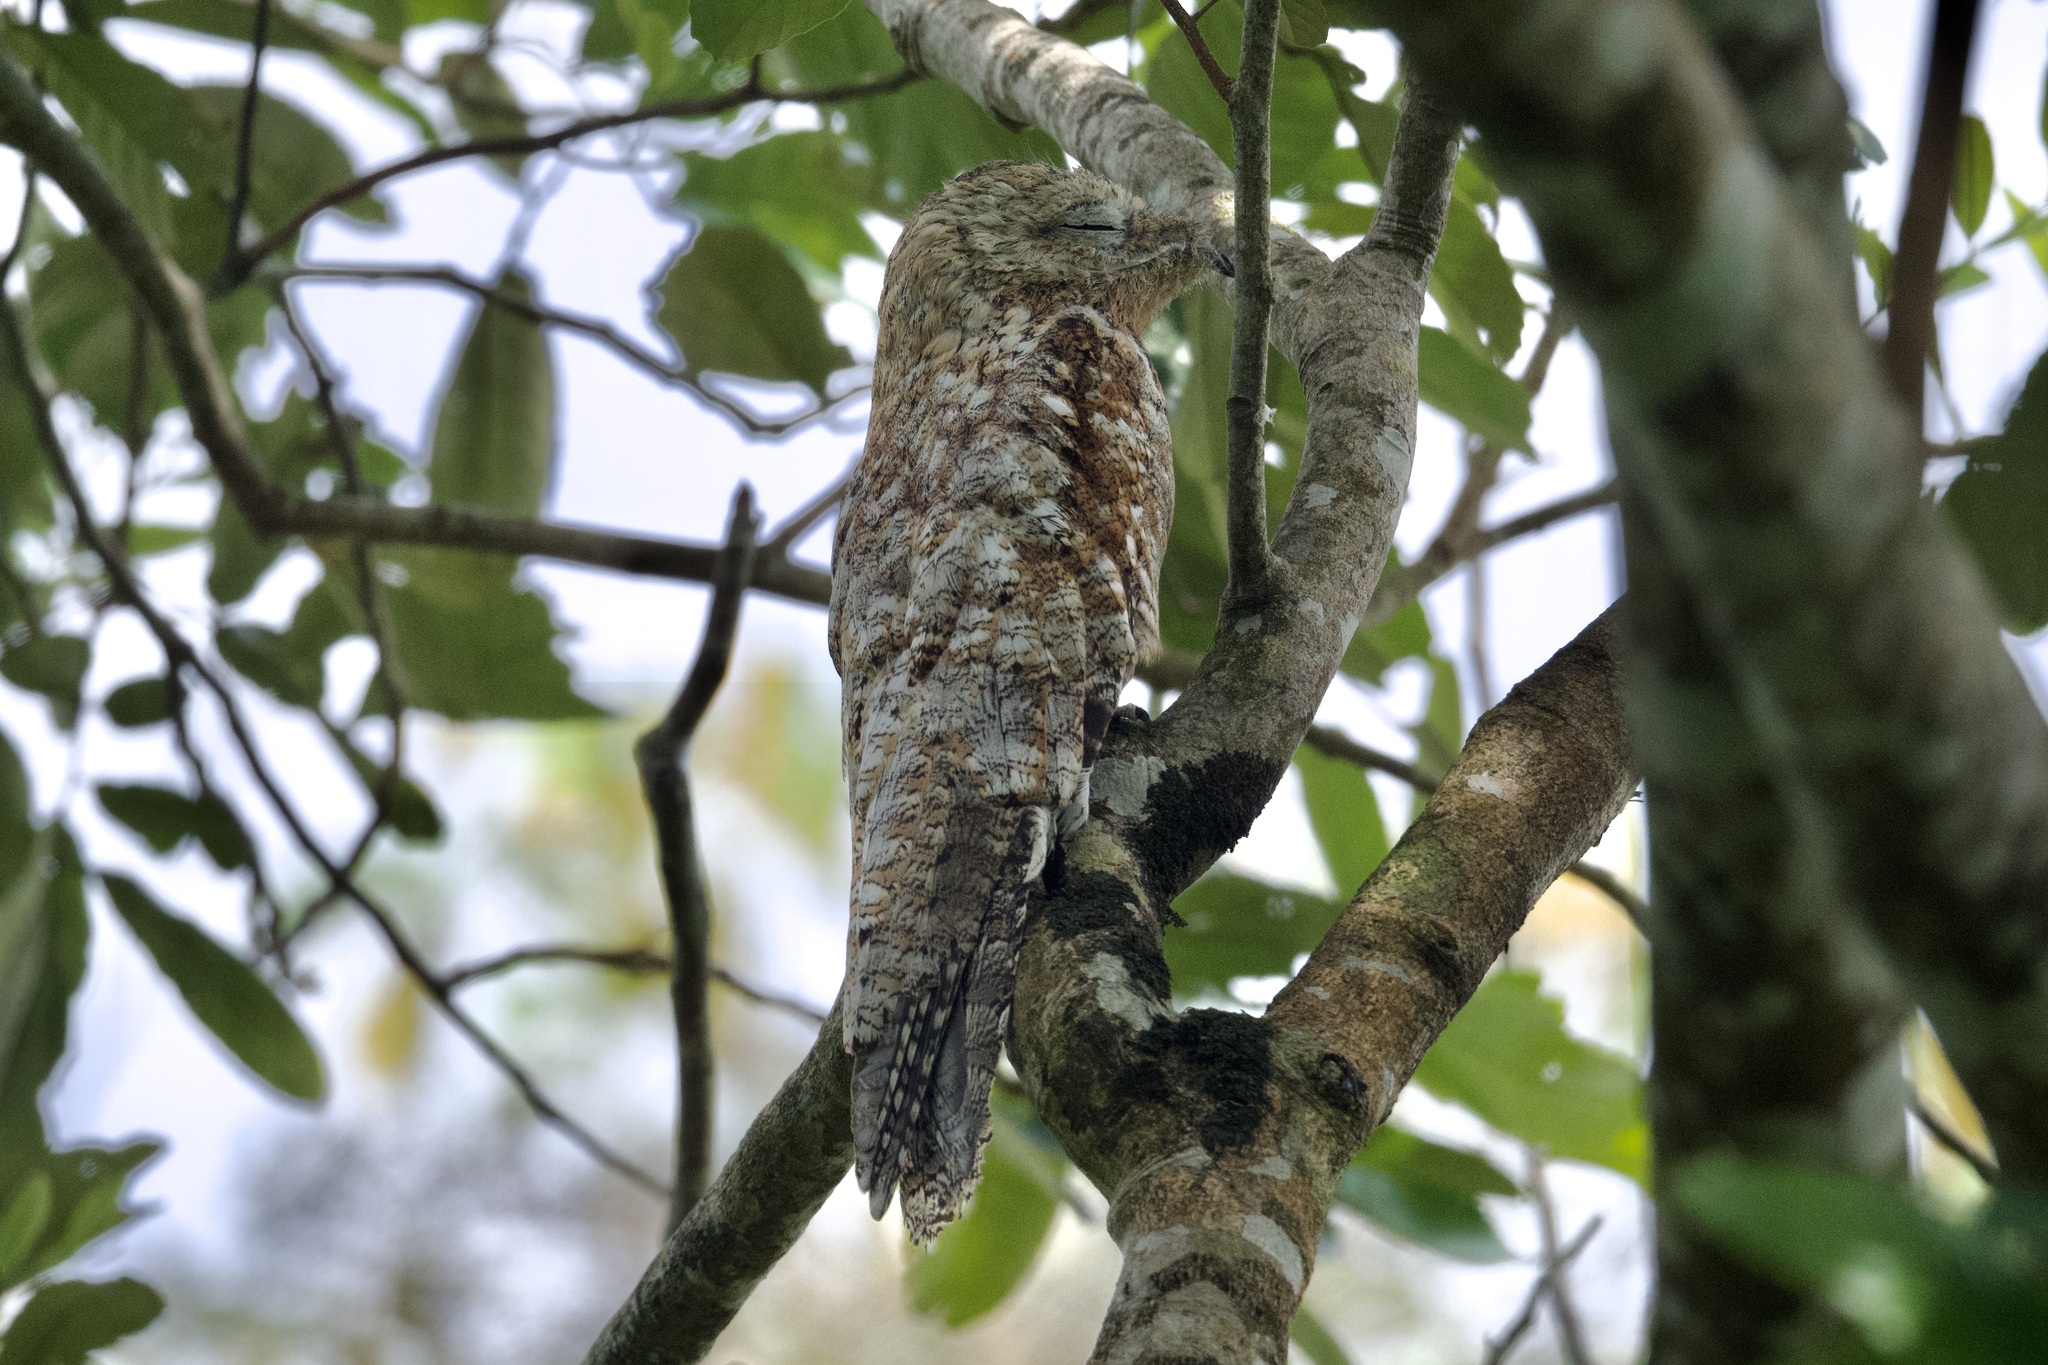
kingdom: Animalia
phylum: Chordata
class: Aves
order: Nyctibiiformes
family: Nyctibiidae
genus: Nyctibius
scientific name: Nyctibius grandis
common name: Great potoo
